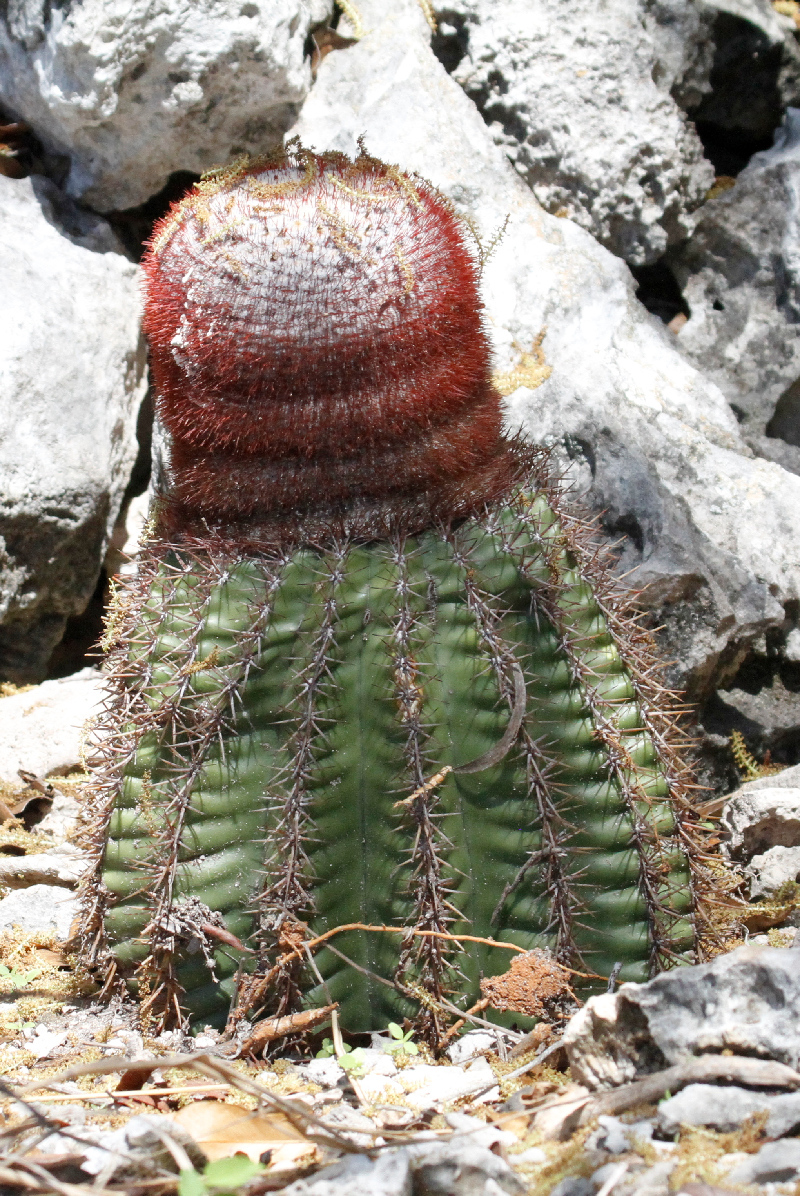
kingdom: Plantae
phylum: Tracheophyta
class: Magnoliopsida
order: Caryophyllales
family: Cactaceae
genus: Melocactus
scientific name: Melocactus intortus
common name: Barrel cactus
